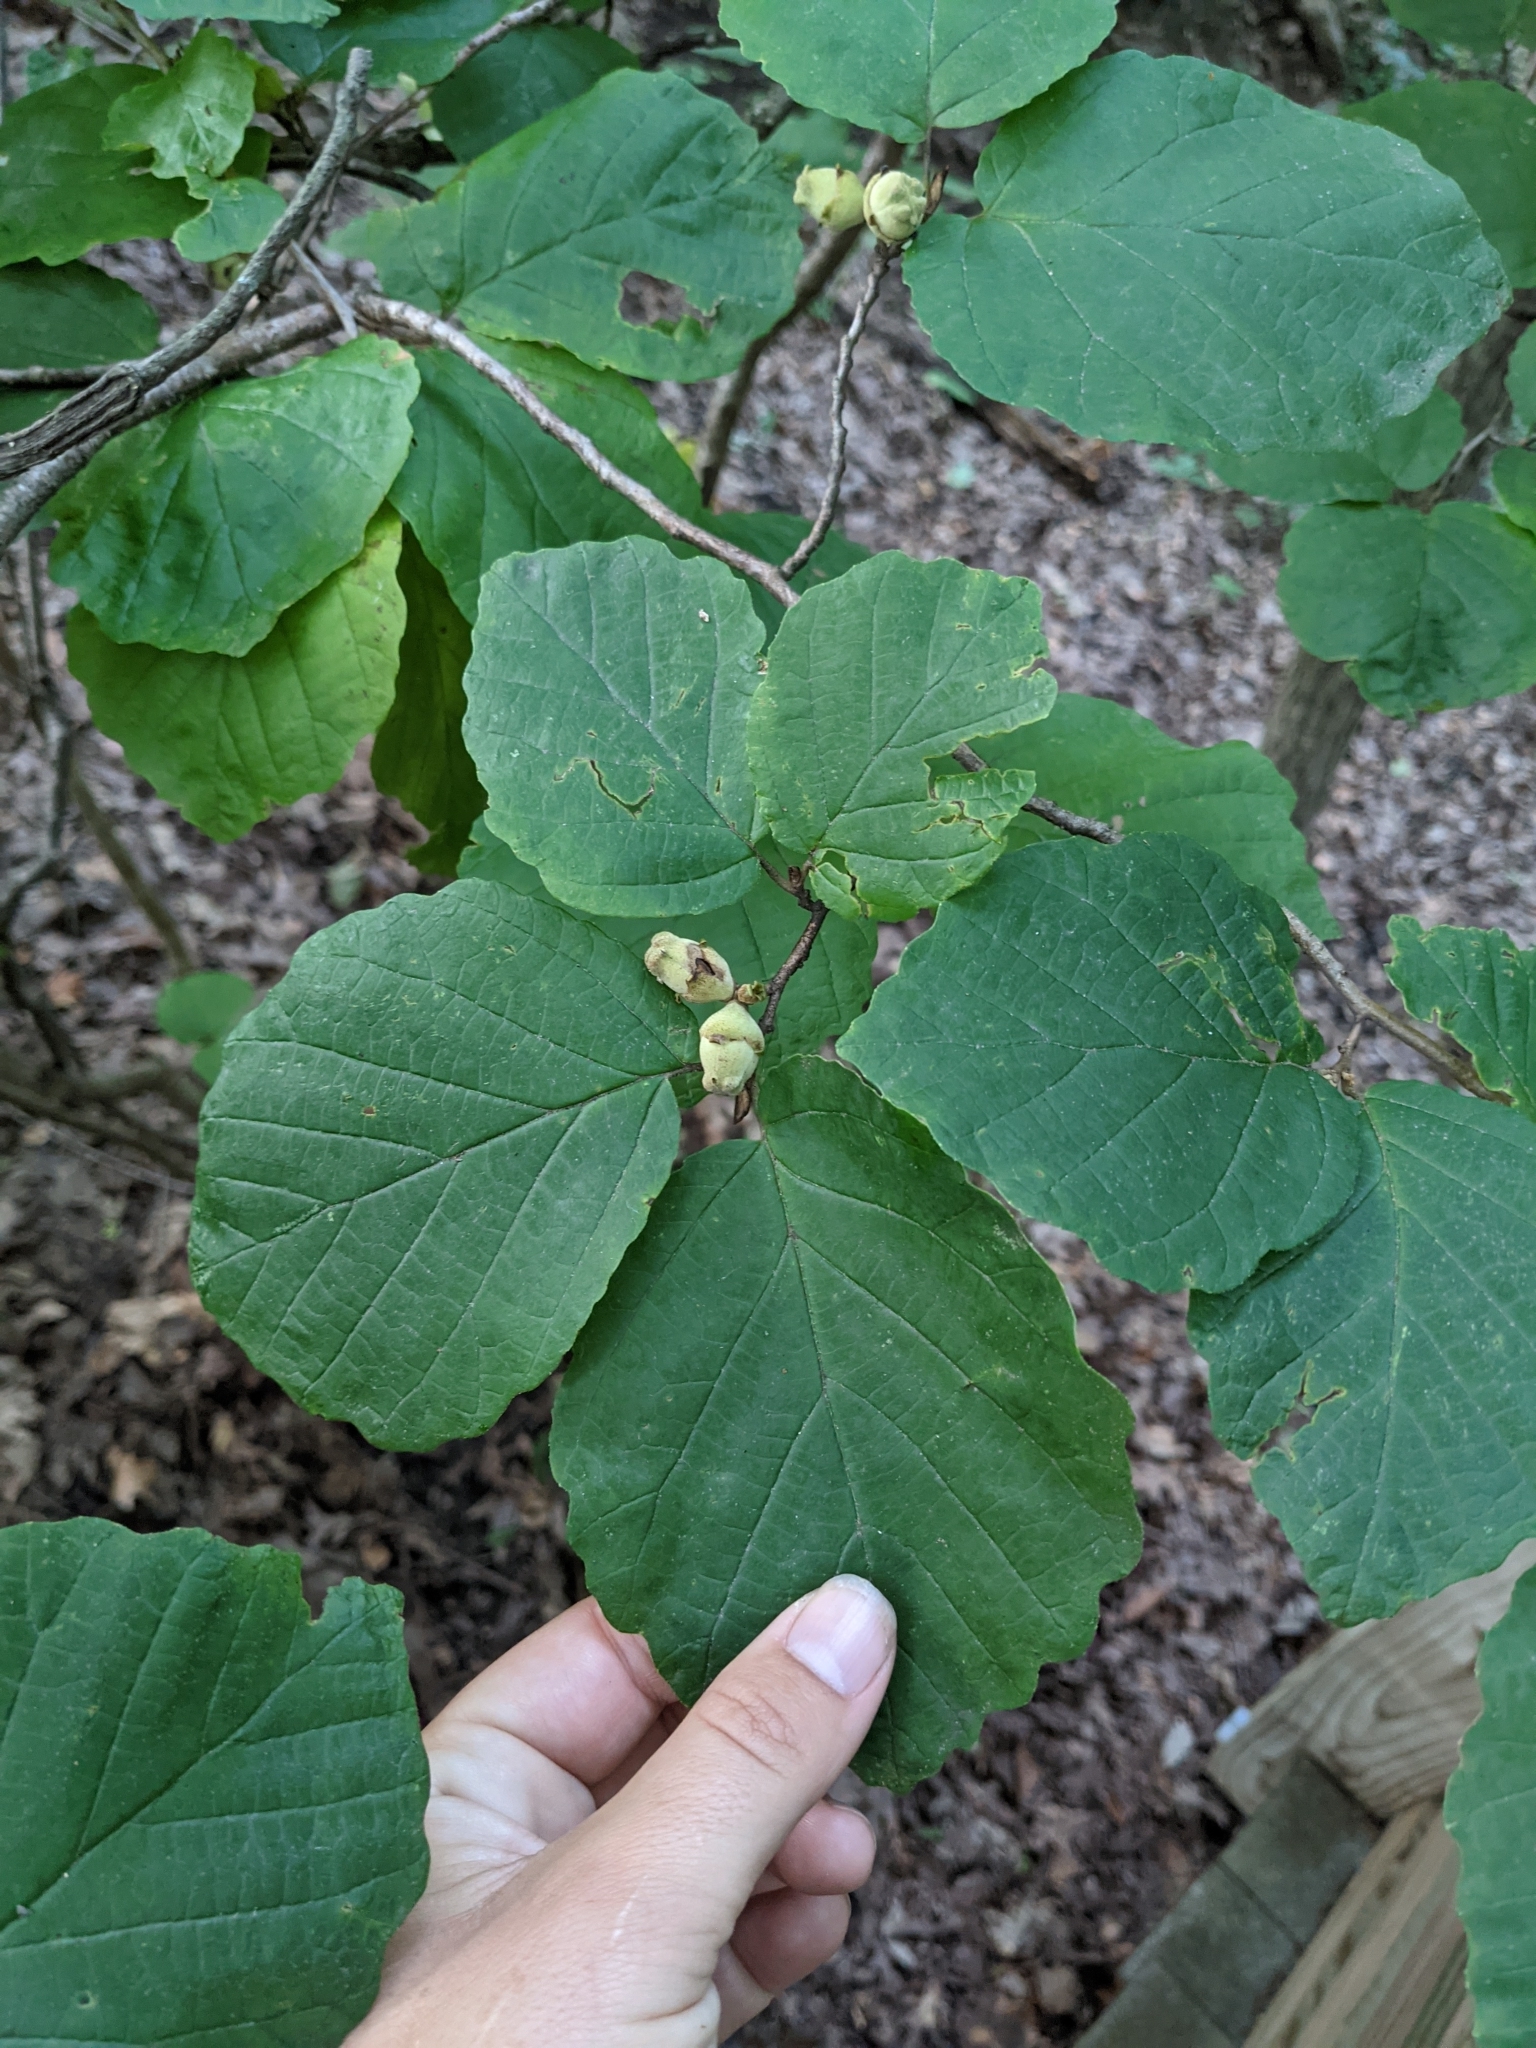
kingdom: Plantae
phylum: Tracheophyta
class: Magnoliopsida
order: Saxifragales
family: Hamamelidaceae
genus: Hamamelis
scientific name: Hamamelis virginiana
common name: Witch-hazel
